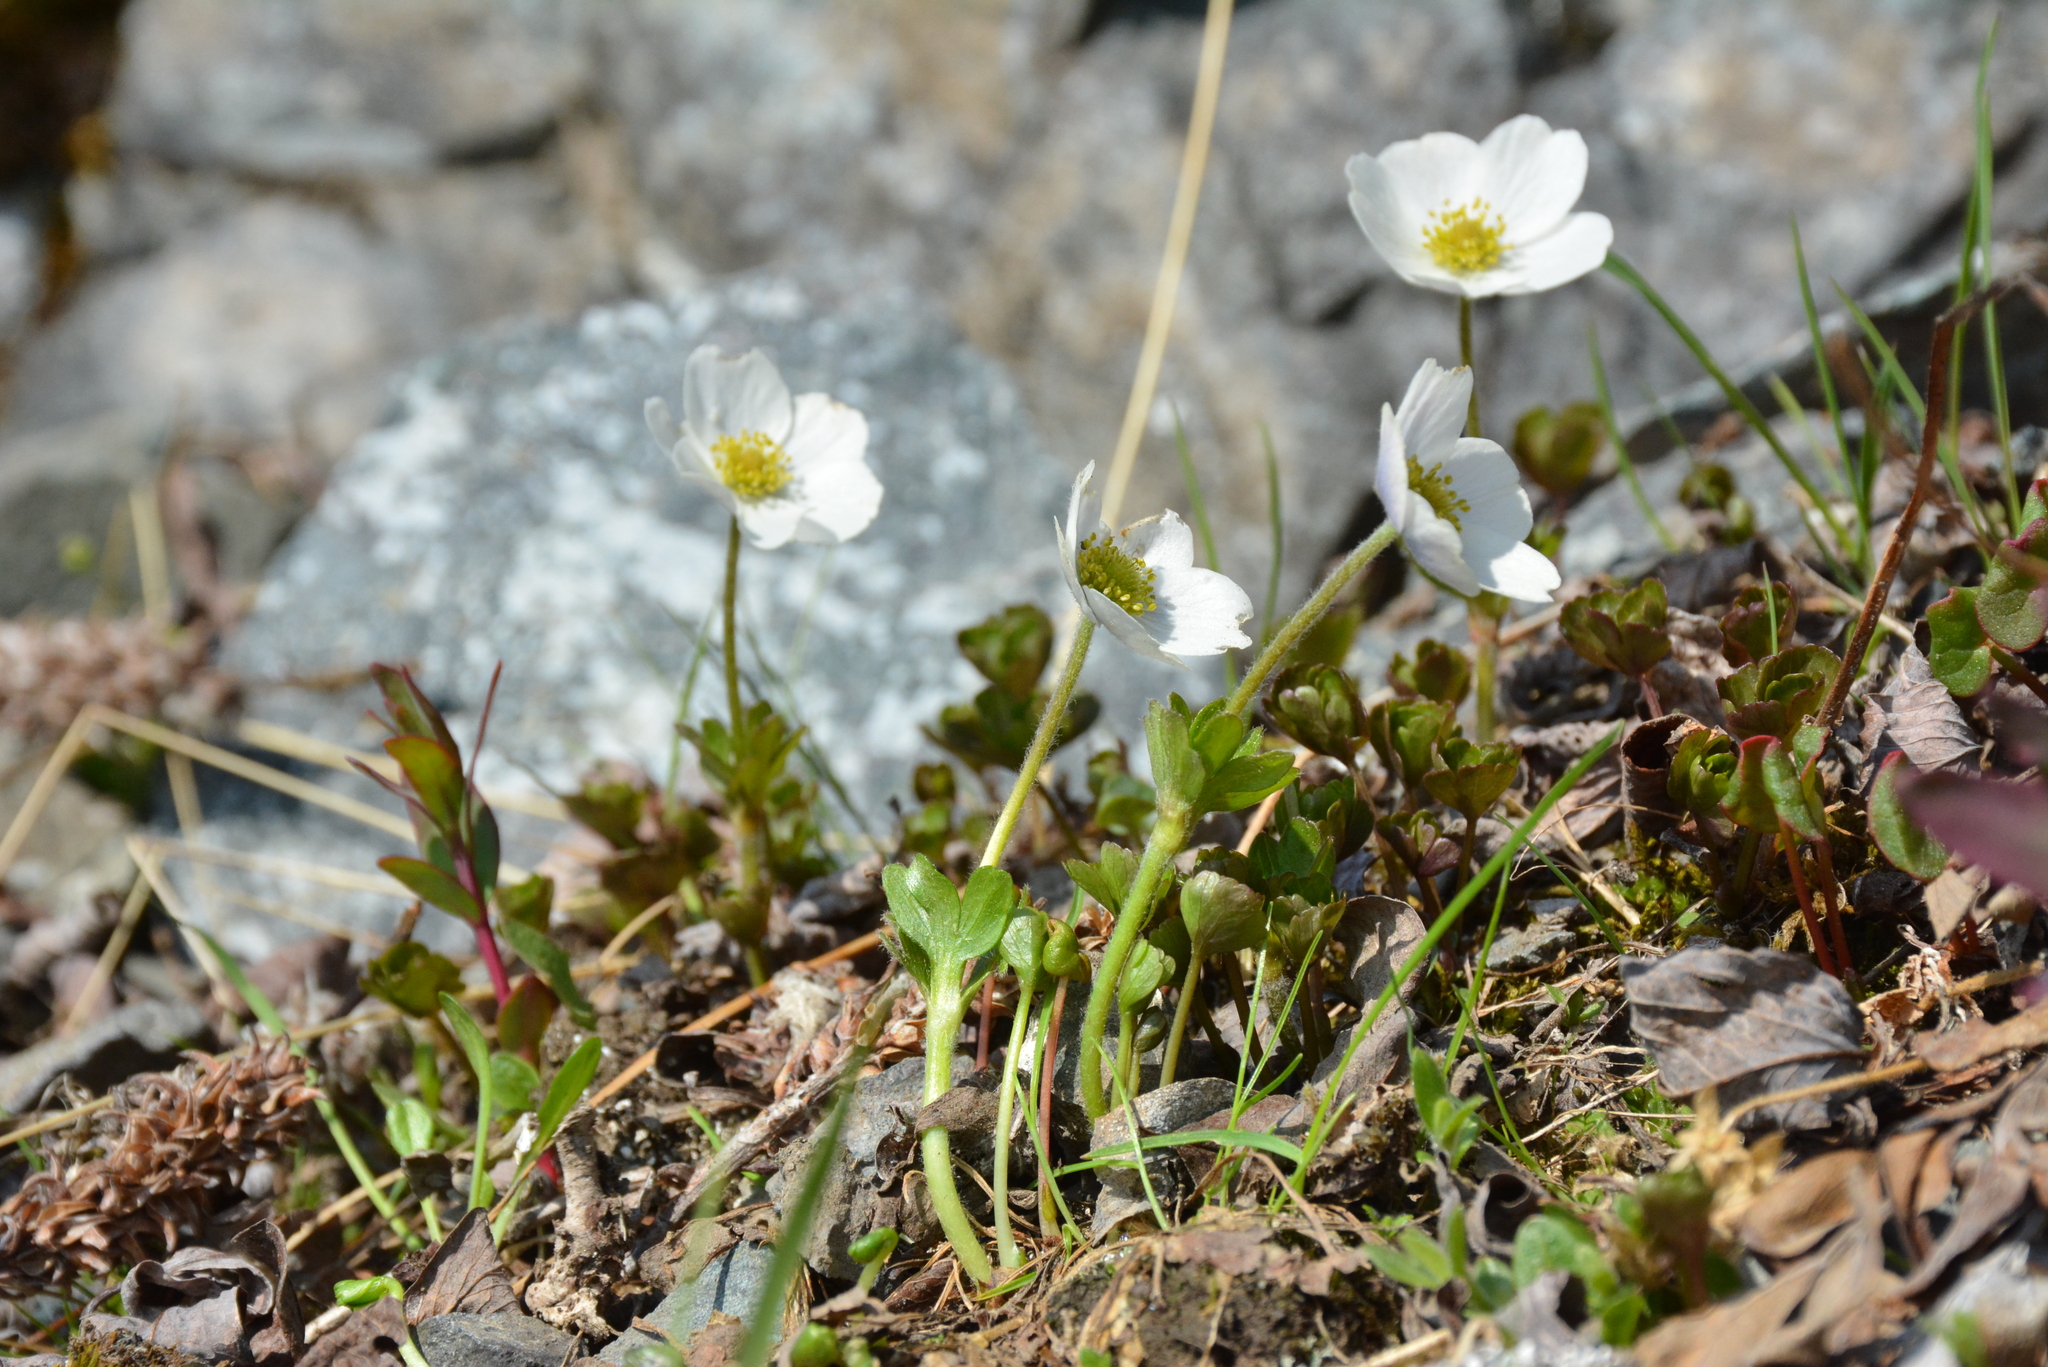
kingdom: Plantae
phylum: Tracheophyta
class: Magnoliopsida
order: Ranunculales
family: Ranunculaceae
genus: Anemone
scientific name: Anemone parviflora
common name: Northern anemone
